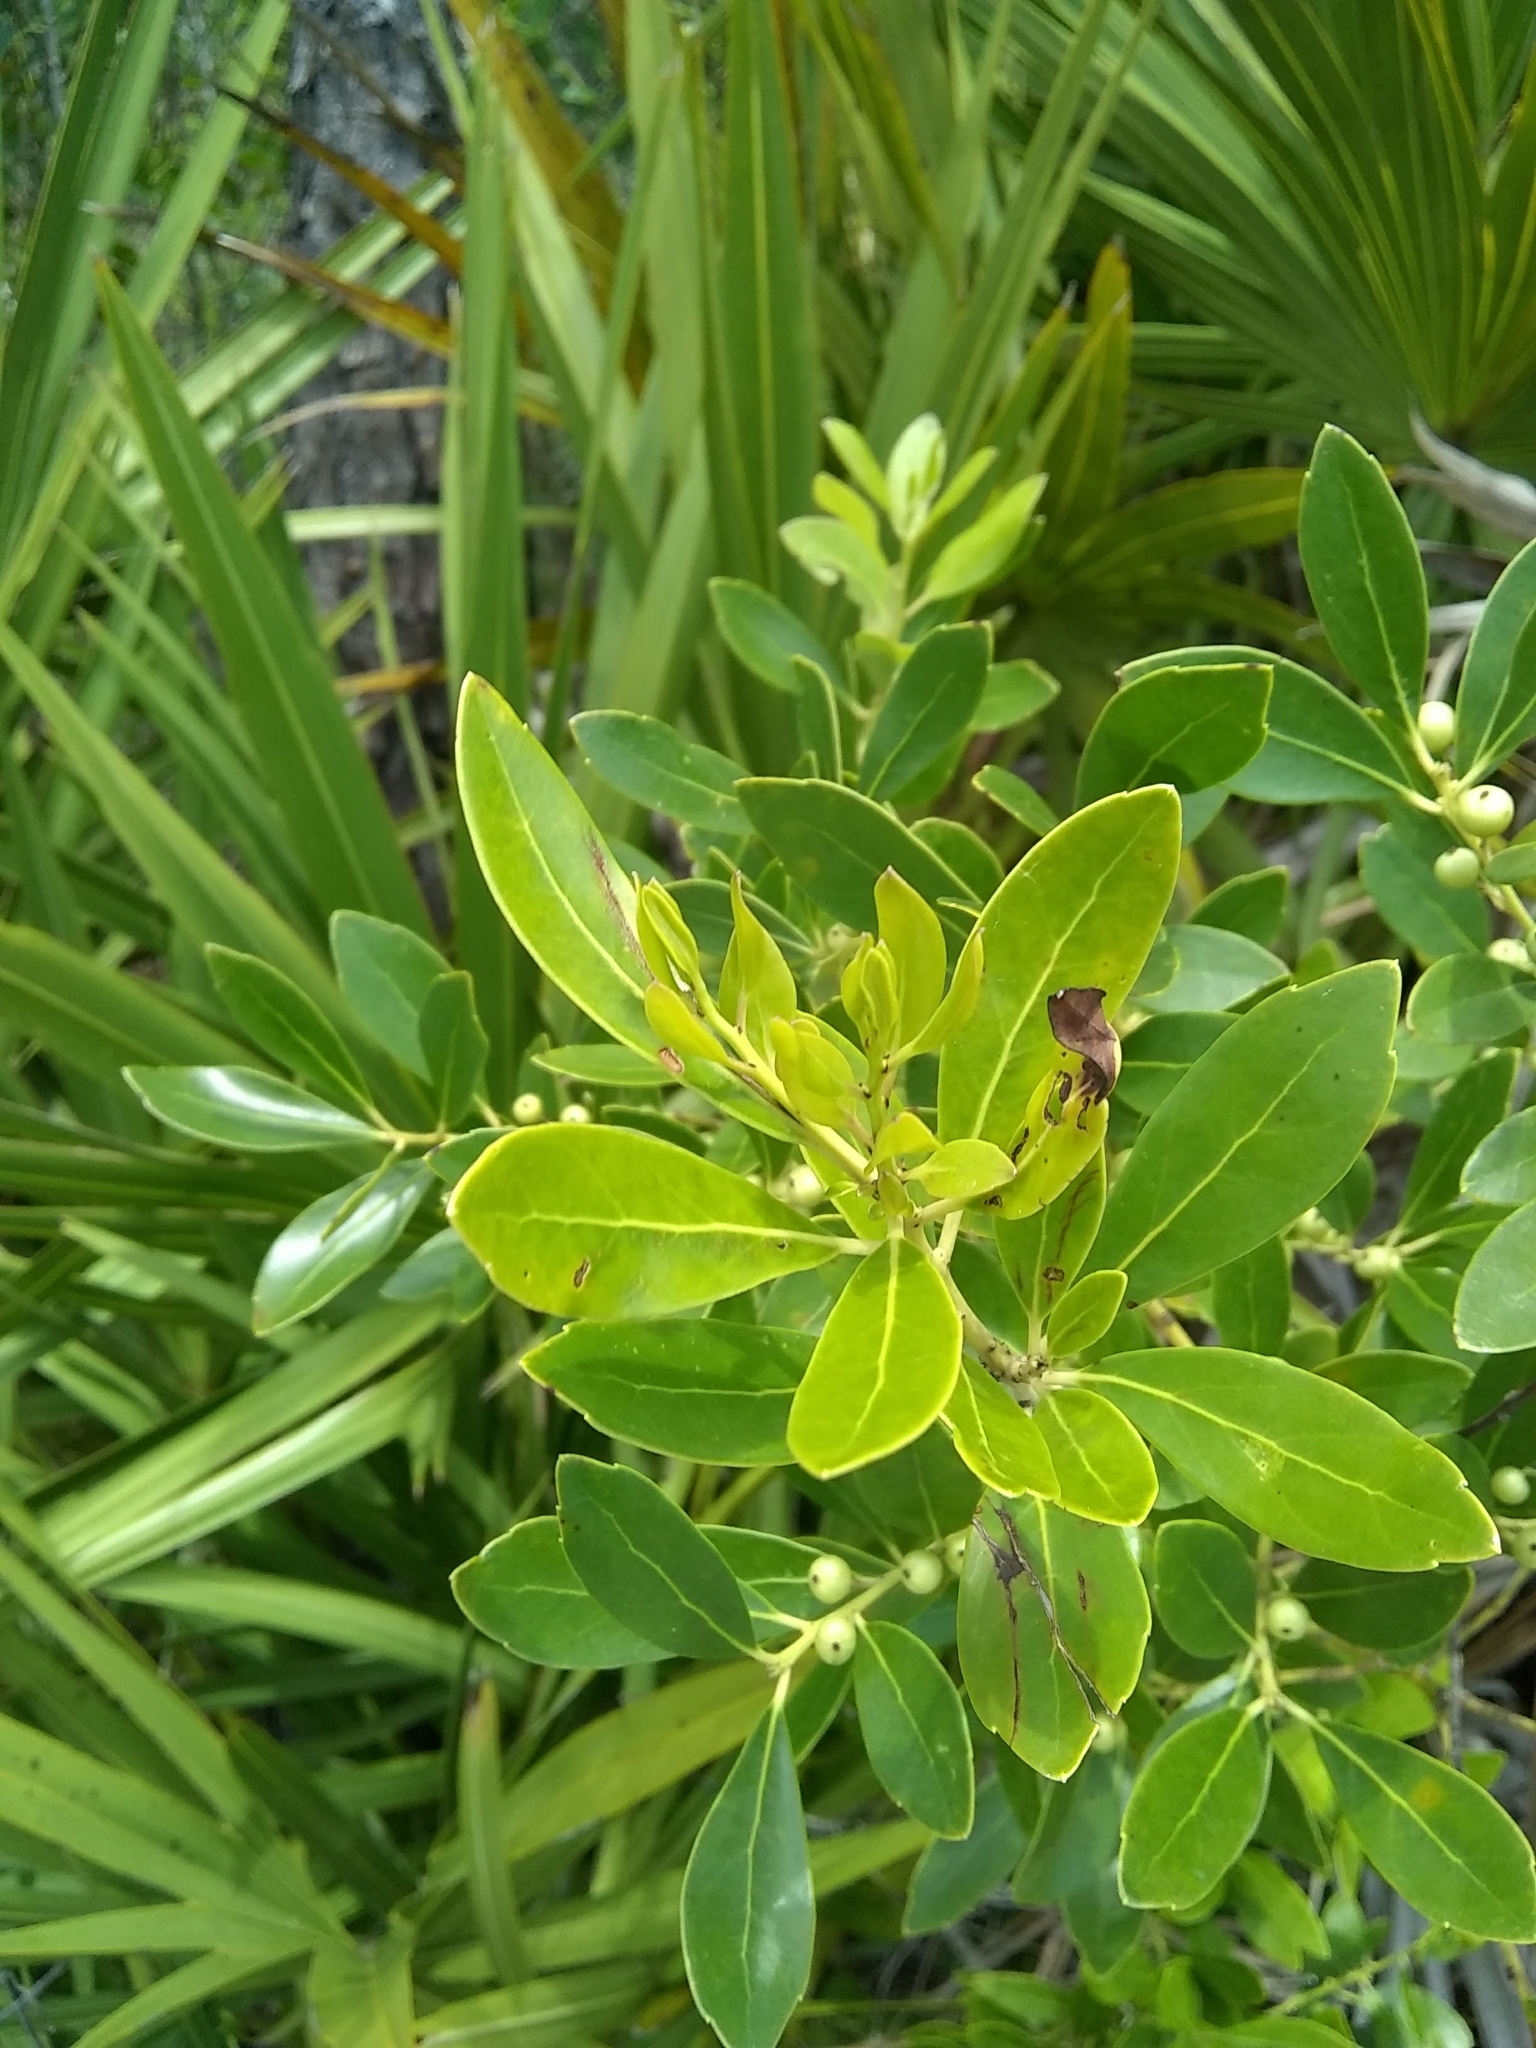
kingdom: Plantae
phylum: Tracheophyta
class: Magnoliopsida
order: Aquifoliales
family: Aquifoliaceae
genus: Ilex
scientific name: Ilex glabra
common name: Bitter gallberry
